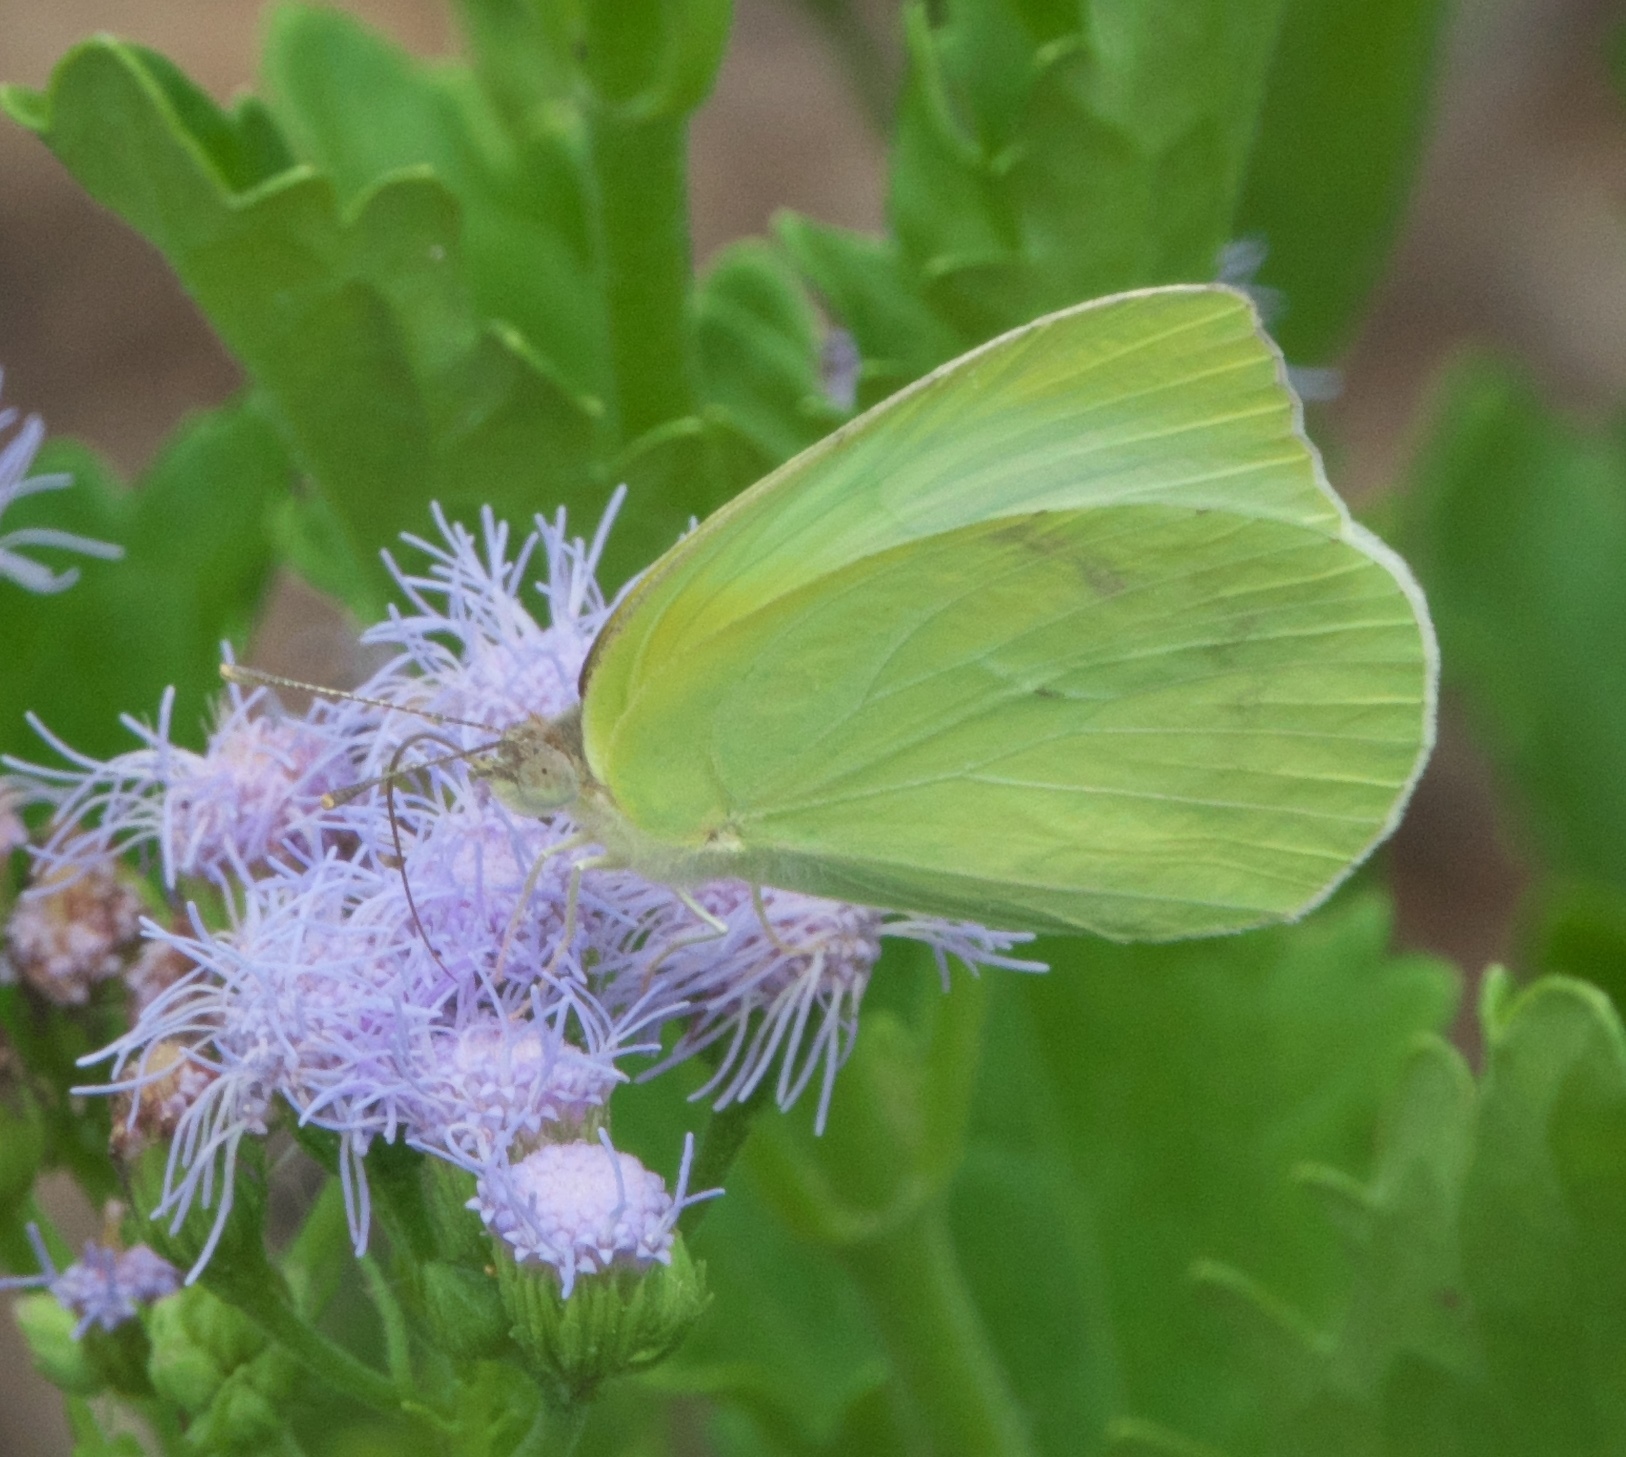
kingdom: Animalia
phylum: Arthropoda
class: Insecta
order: Lepidoptera
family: Pieridae
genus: Kricogonia
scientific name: Kricogonia lyside
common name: Guayacan sulphur,
